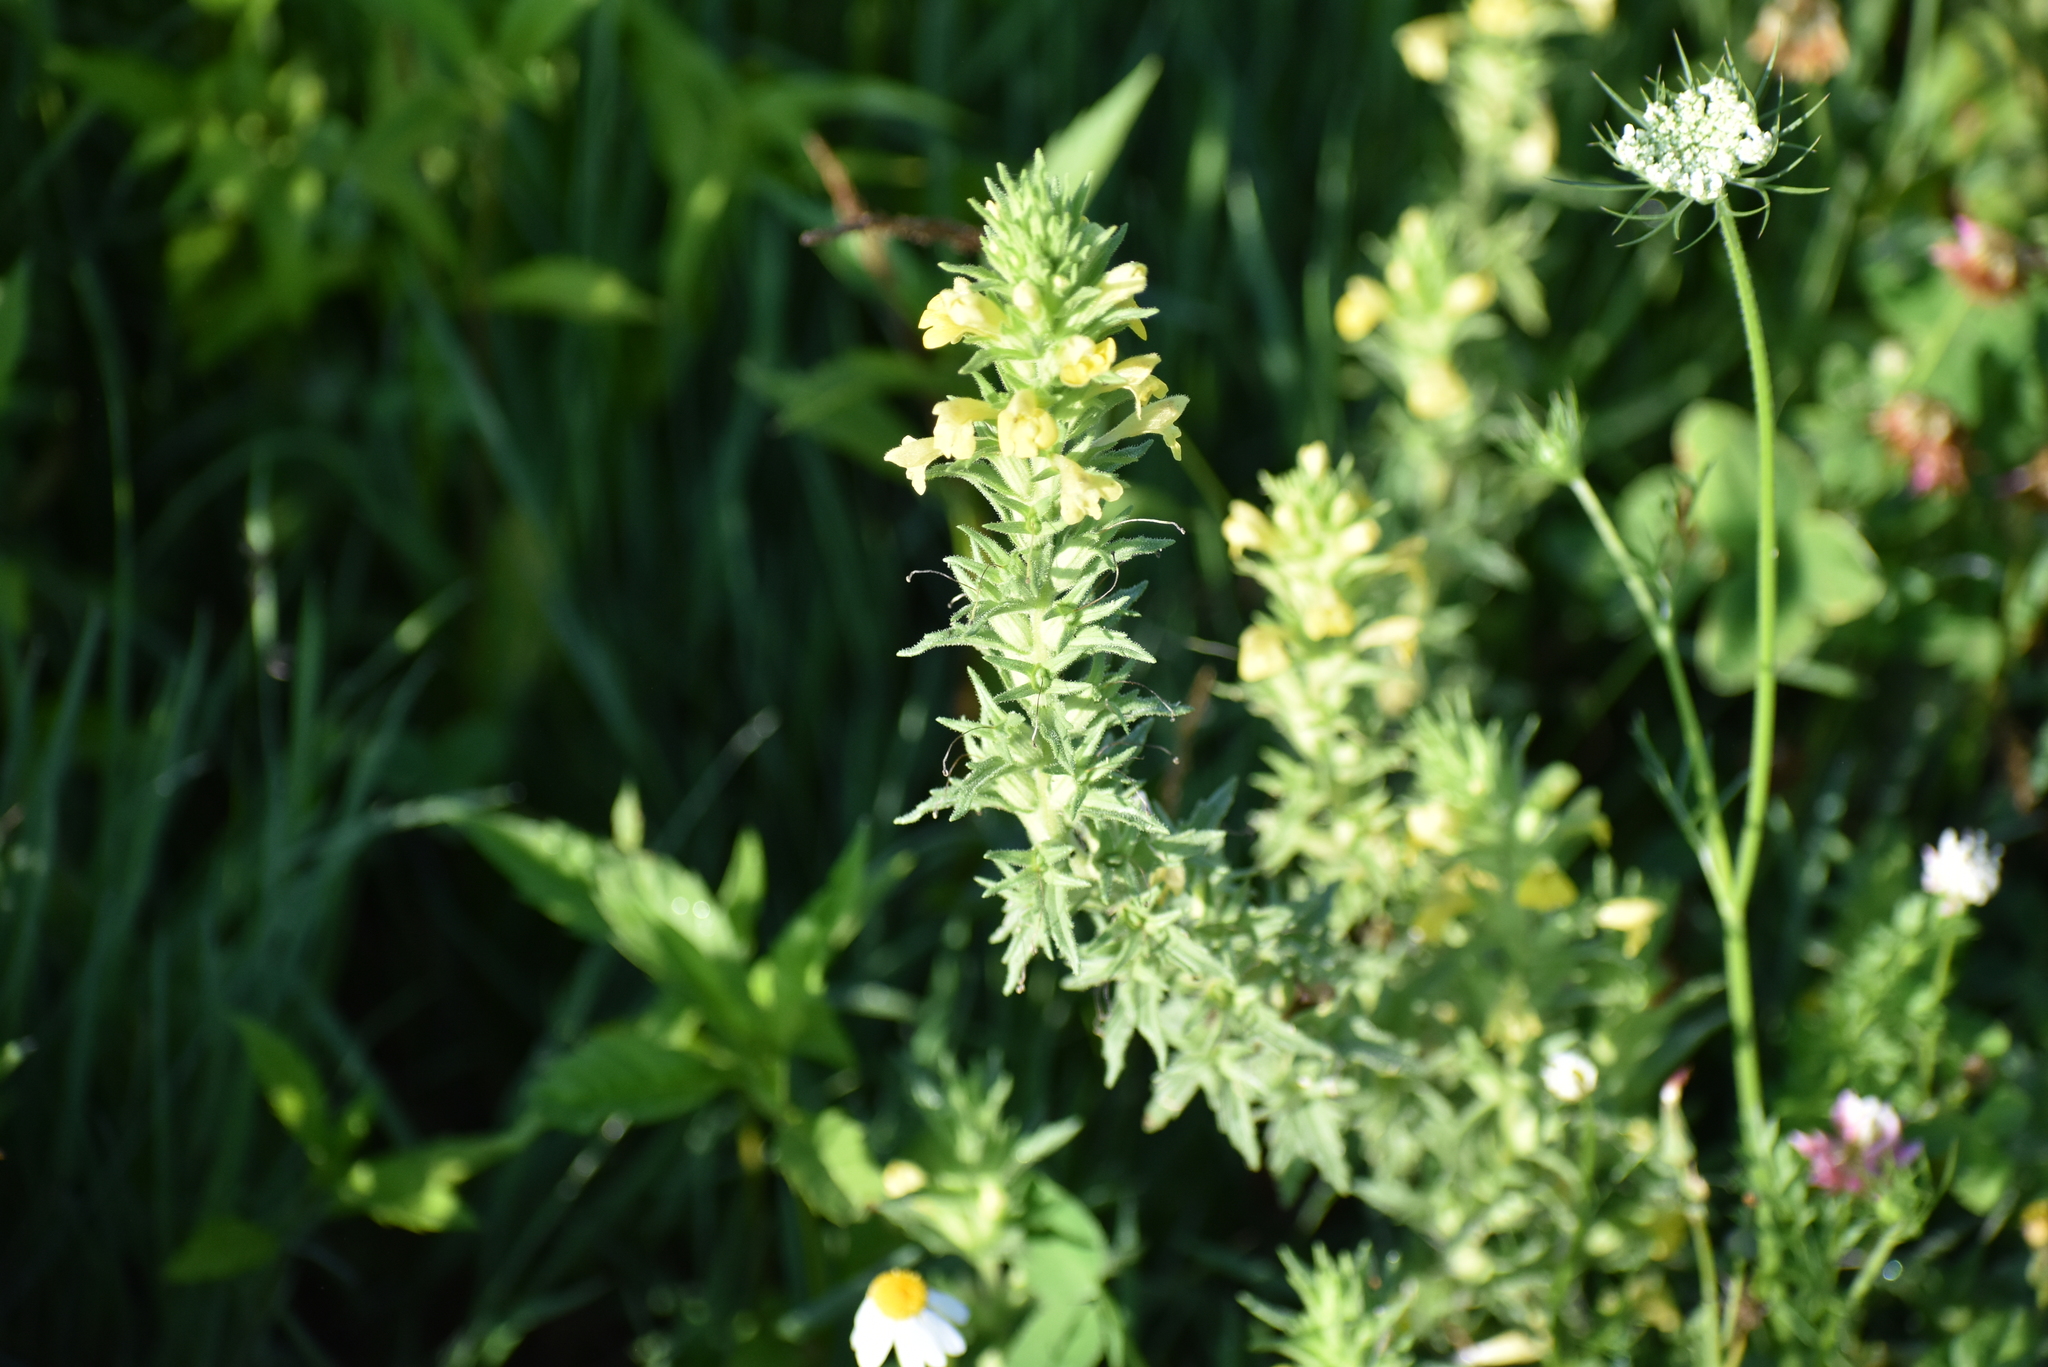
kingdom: Plantae
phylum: Tracheophyta
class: Magnoliopsida
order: Lamiales
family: Orobanchaceae
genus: Bellardia
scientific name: Bellardia viscosa
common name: Sticky parentucellia
